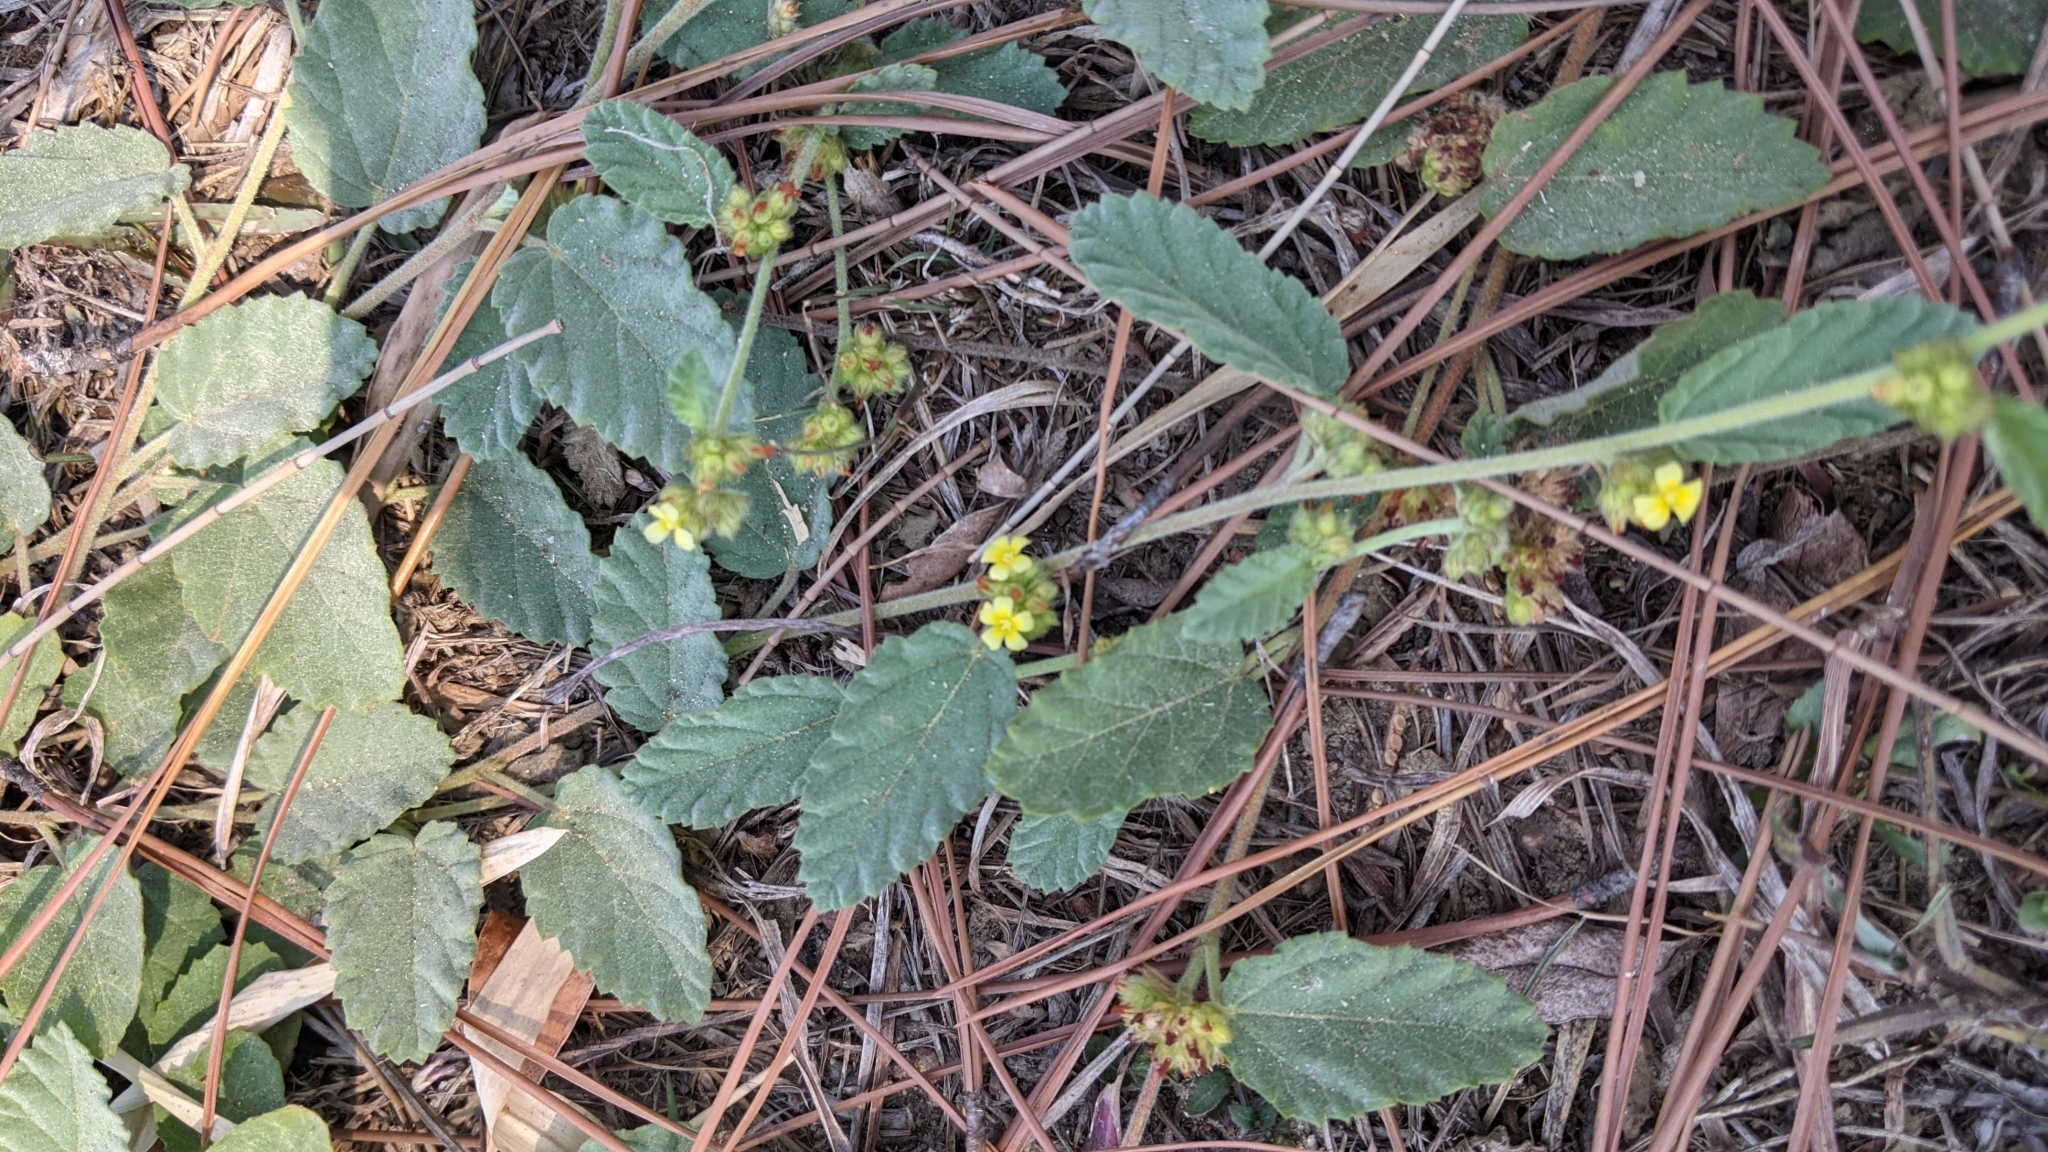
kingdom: Plantae
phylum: Tracheophyta
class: Magnoliopsida
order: Malvales
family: Malvaceae
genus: Waltheria
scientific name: Waltheria indica
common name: Leather-coat
